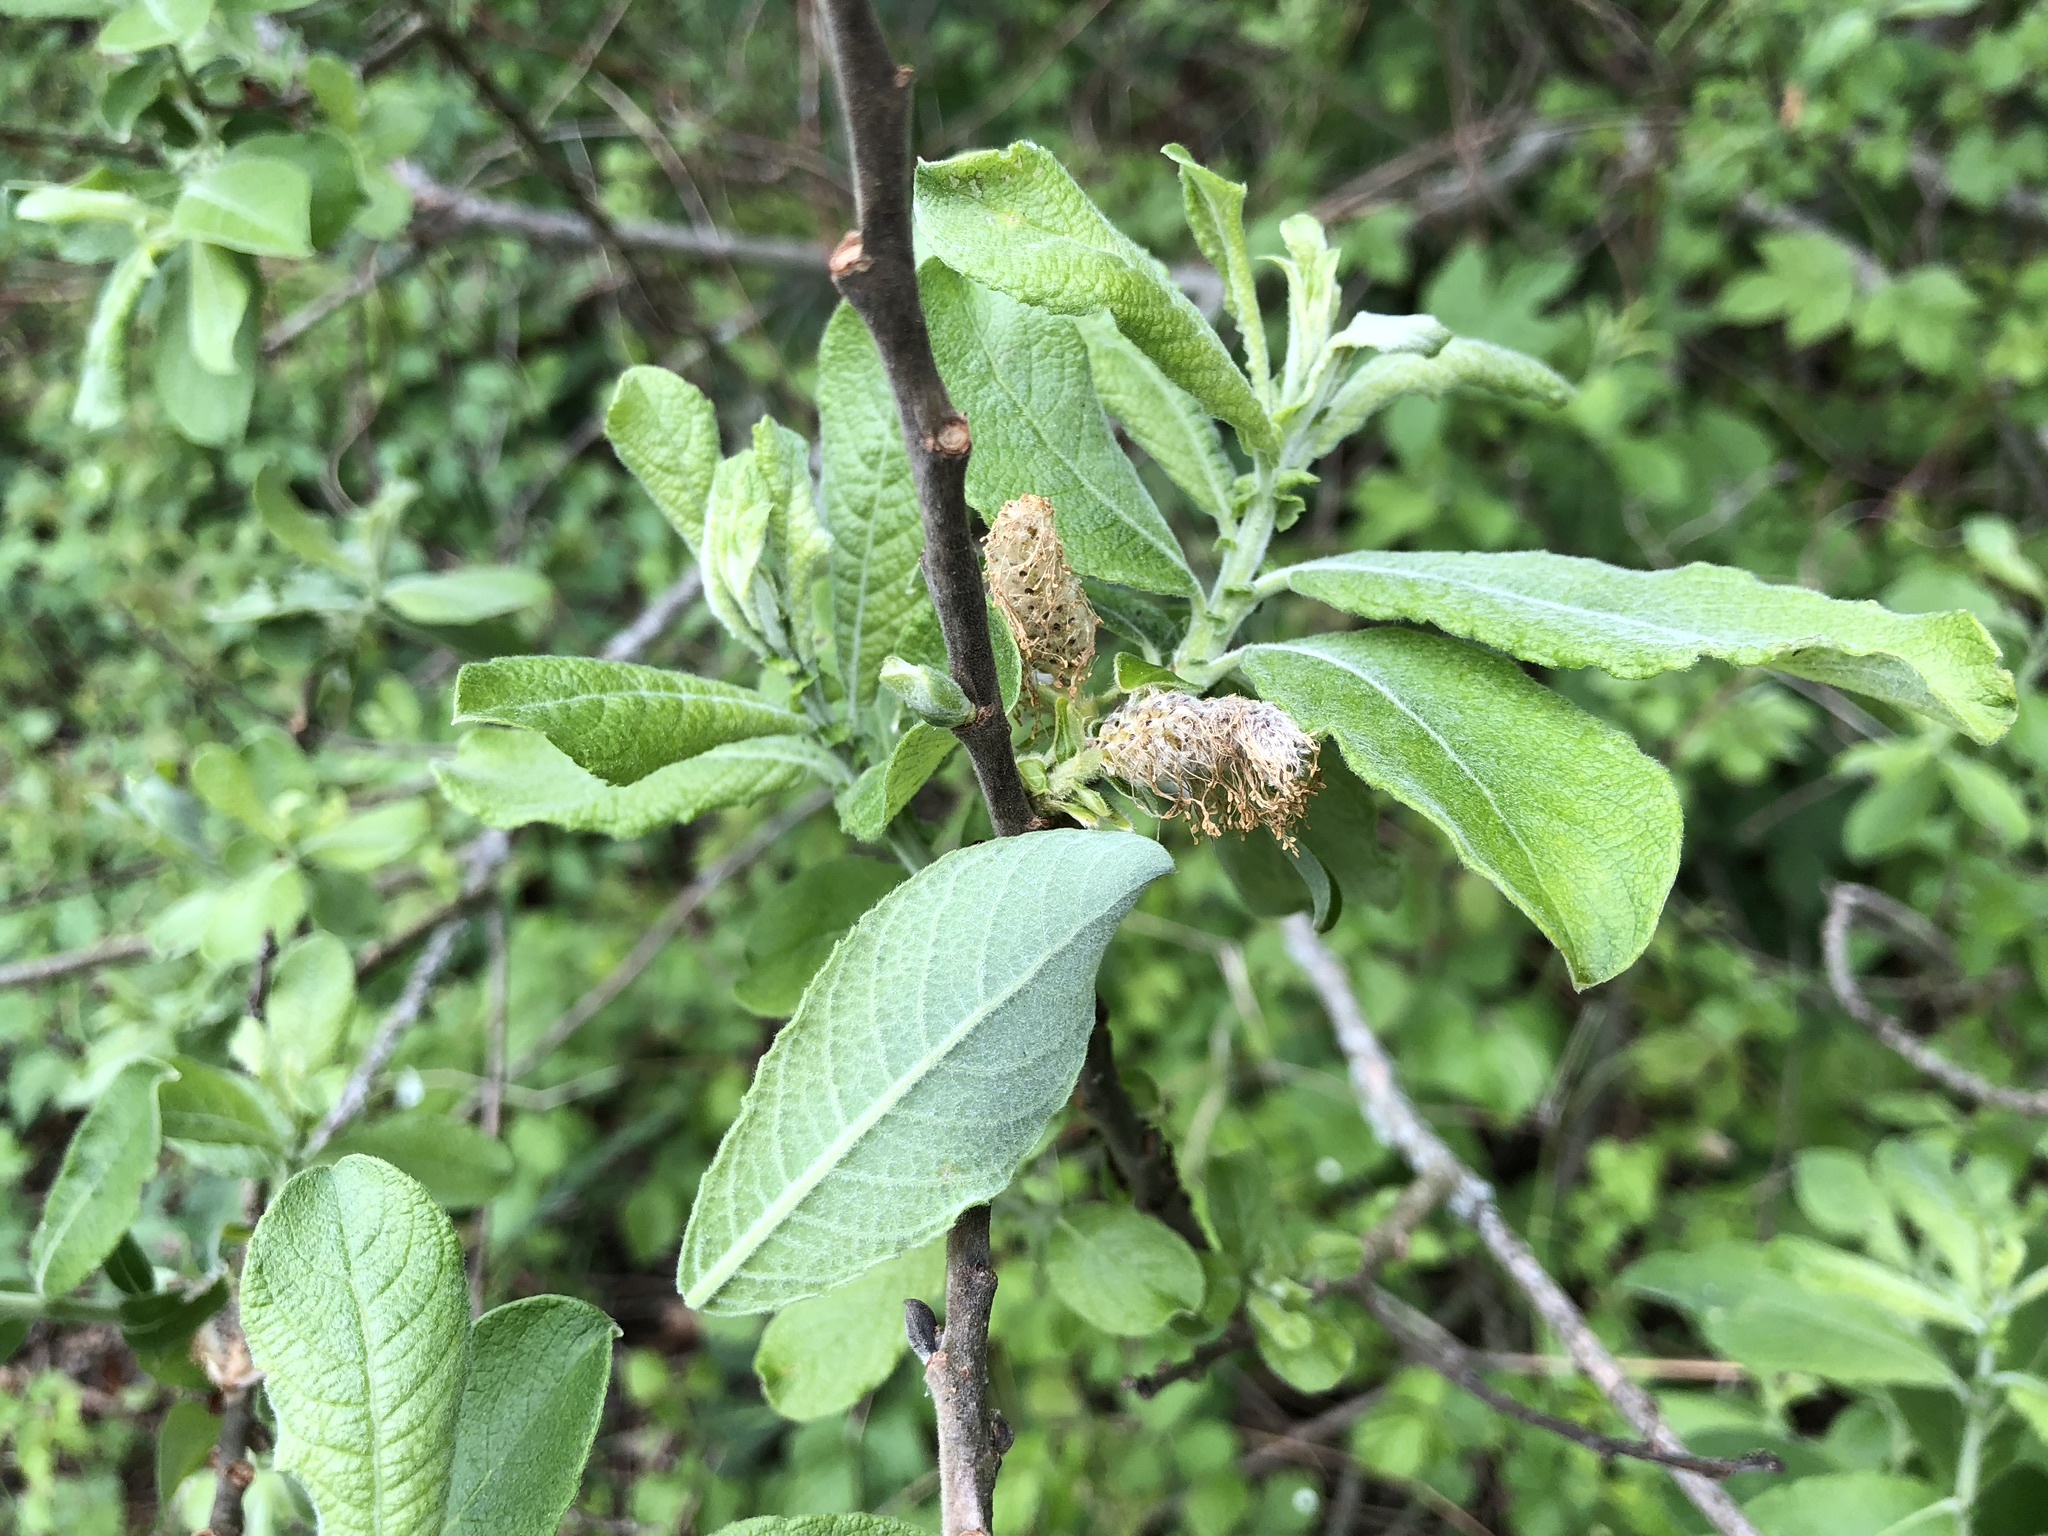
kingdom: Plantae
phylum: Tracheophyta
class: Magnoliopsida
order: Malpighiales
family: Salicaceae
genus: Salix
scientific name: Salix caprea
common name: Goat willow
